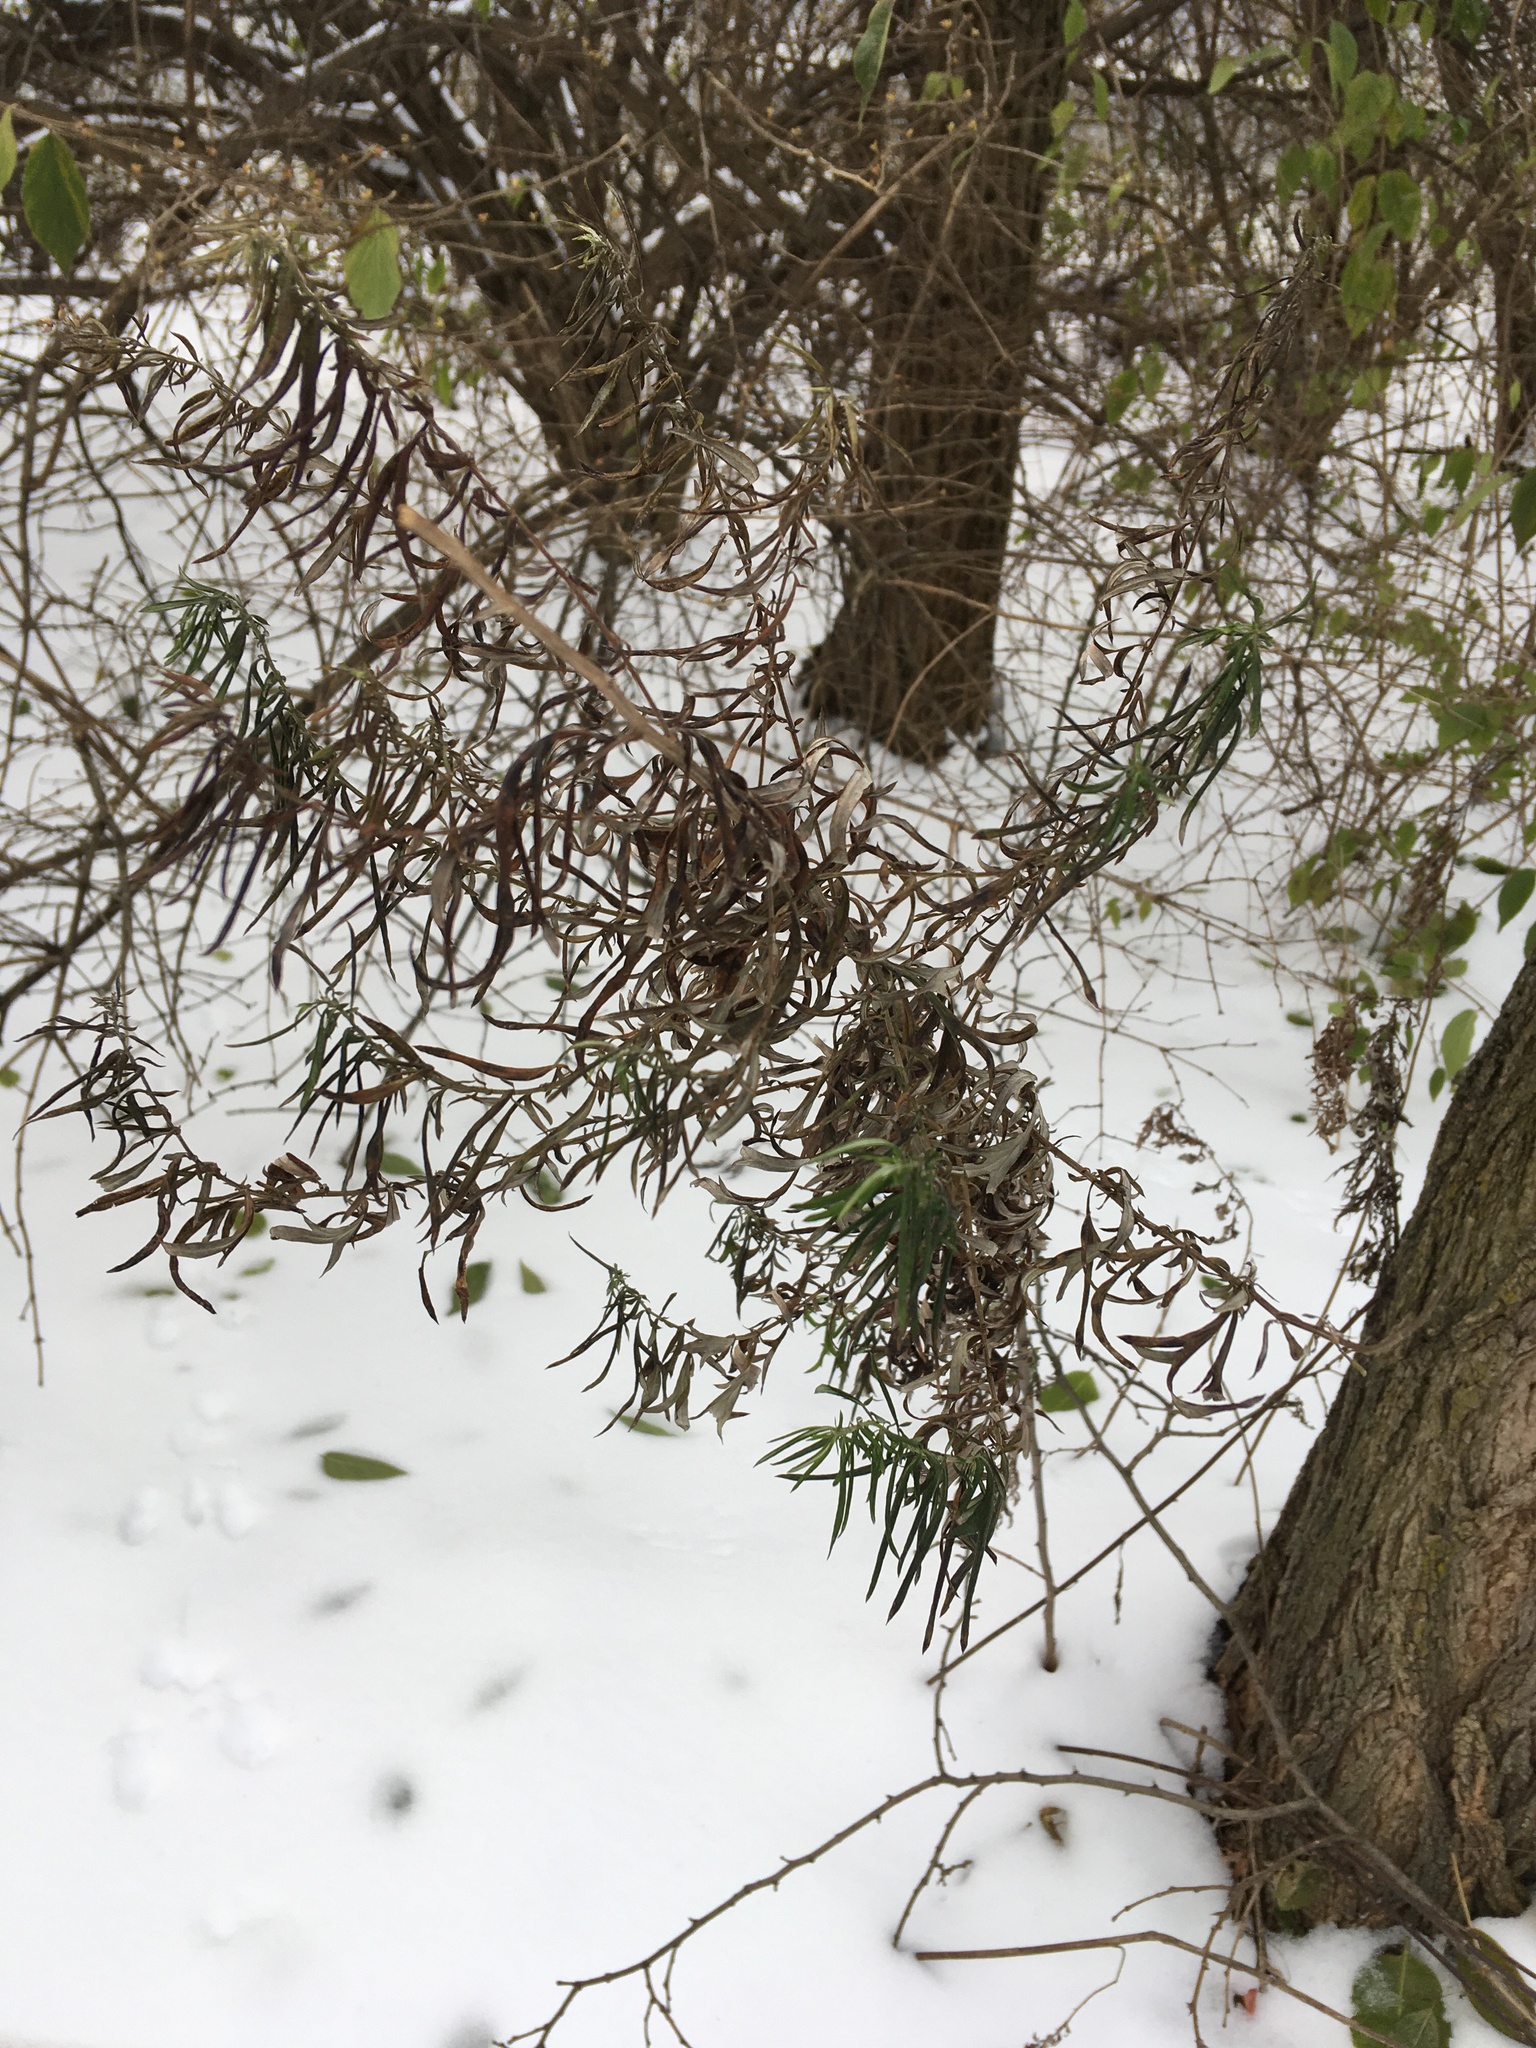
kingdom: Plantae
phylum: Tracheophyta
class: Magnoliopsida
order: Asterales
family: Asteraceae
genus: Artemisia
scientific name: Artemisia vulgaris
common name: Mugwort
